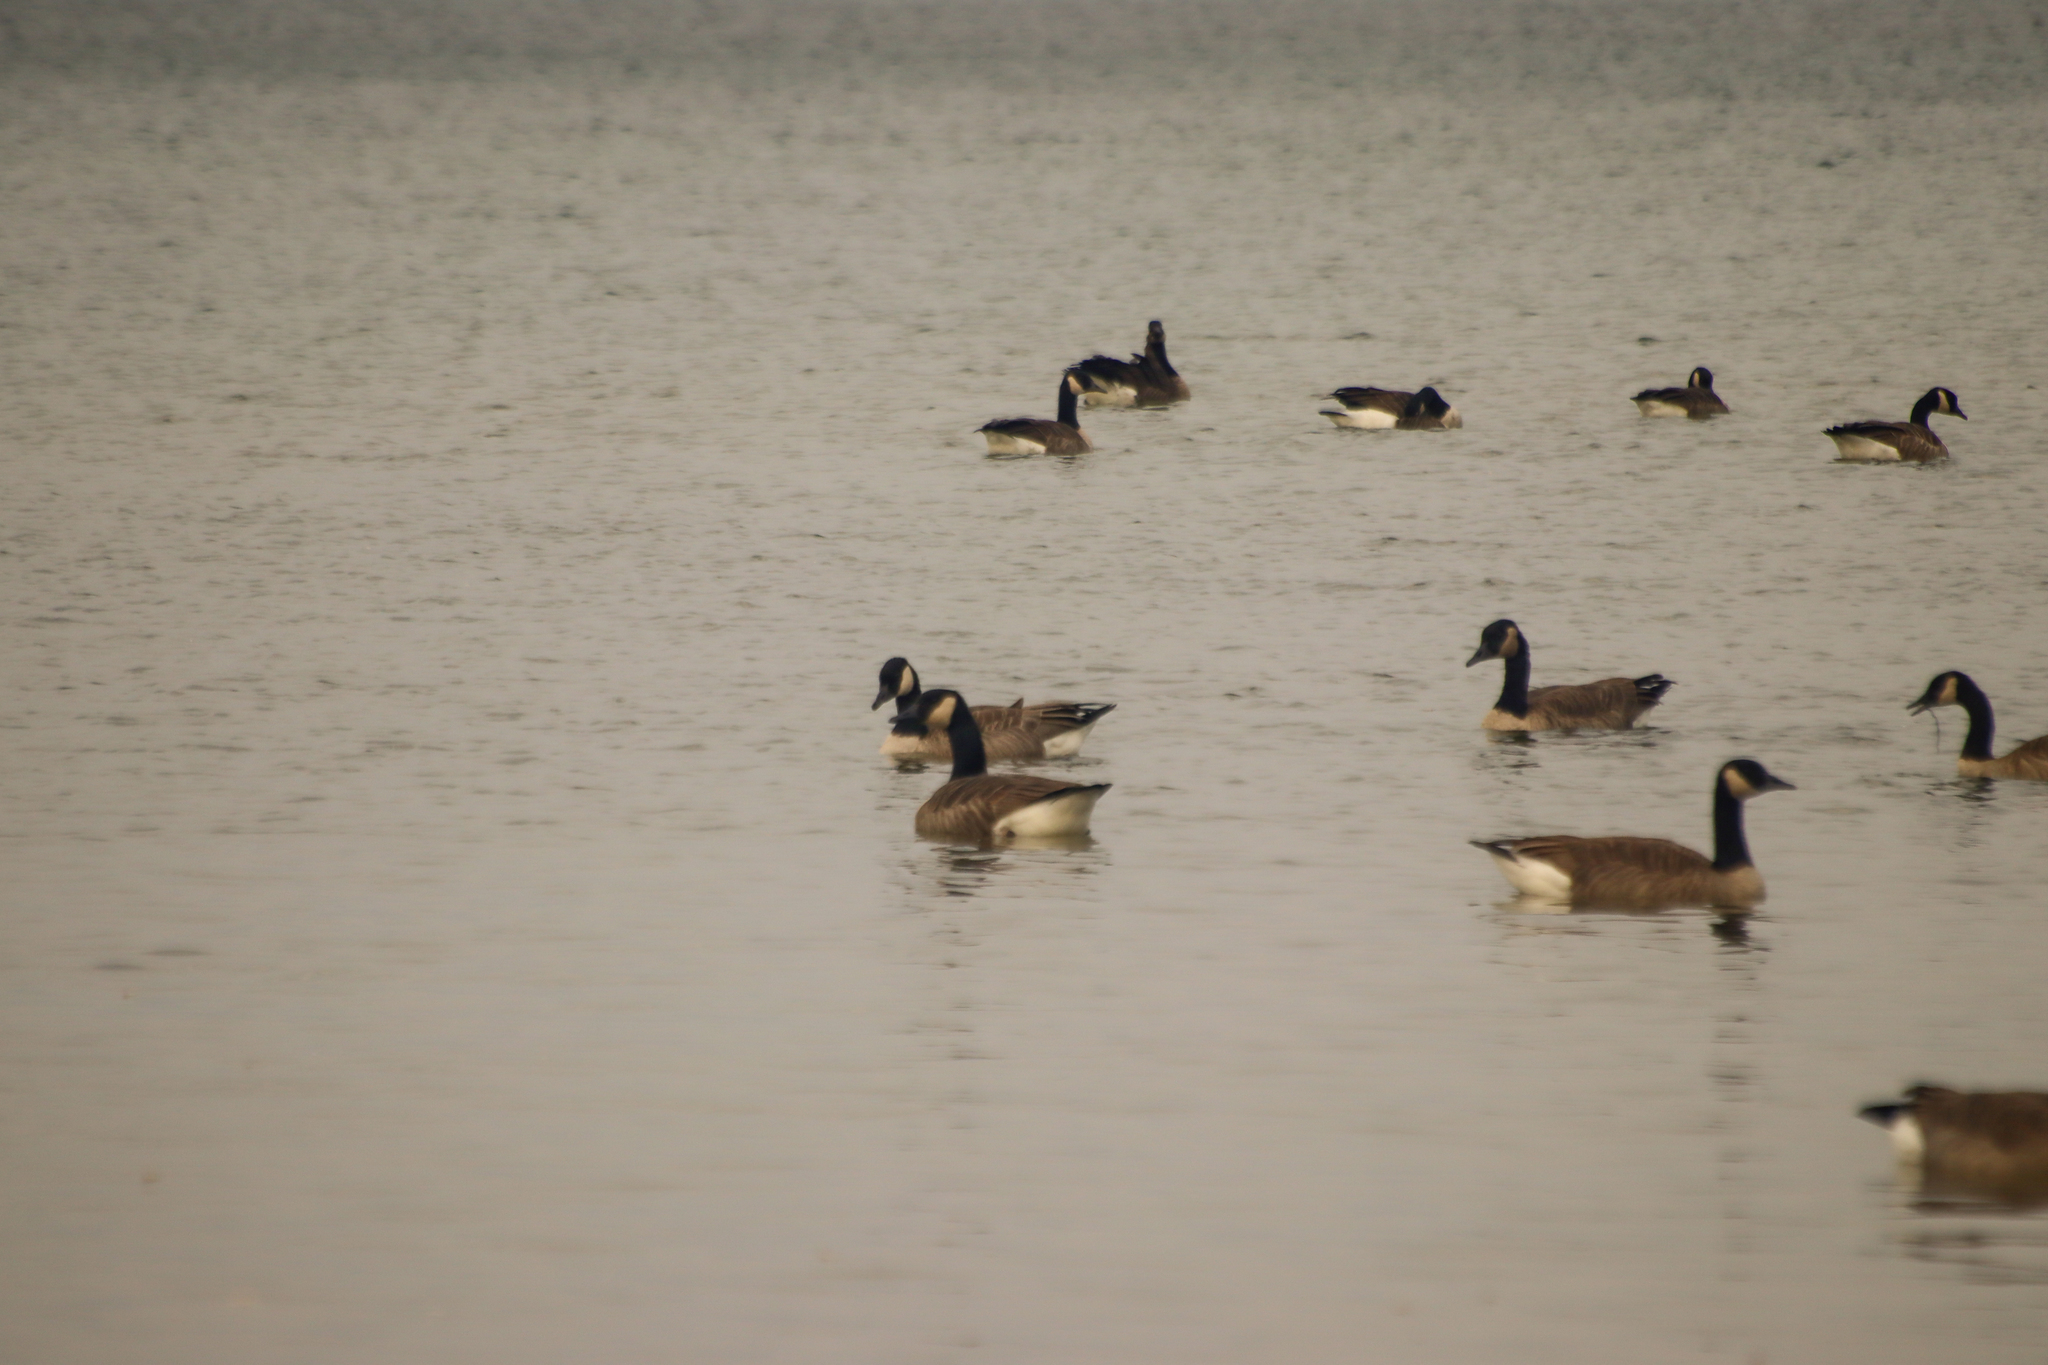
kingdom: Animalia
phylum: Chordata
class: Aves
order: Anseriformes
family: Anatidae
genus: Branta
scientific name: Branta canadensis
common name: Canada goose
